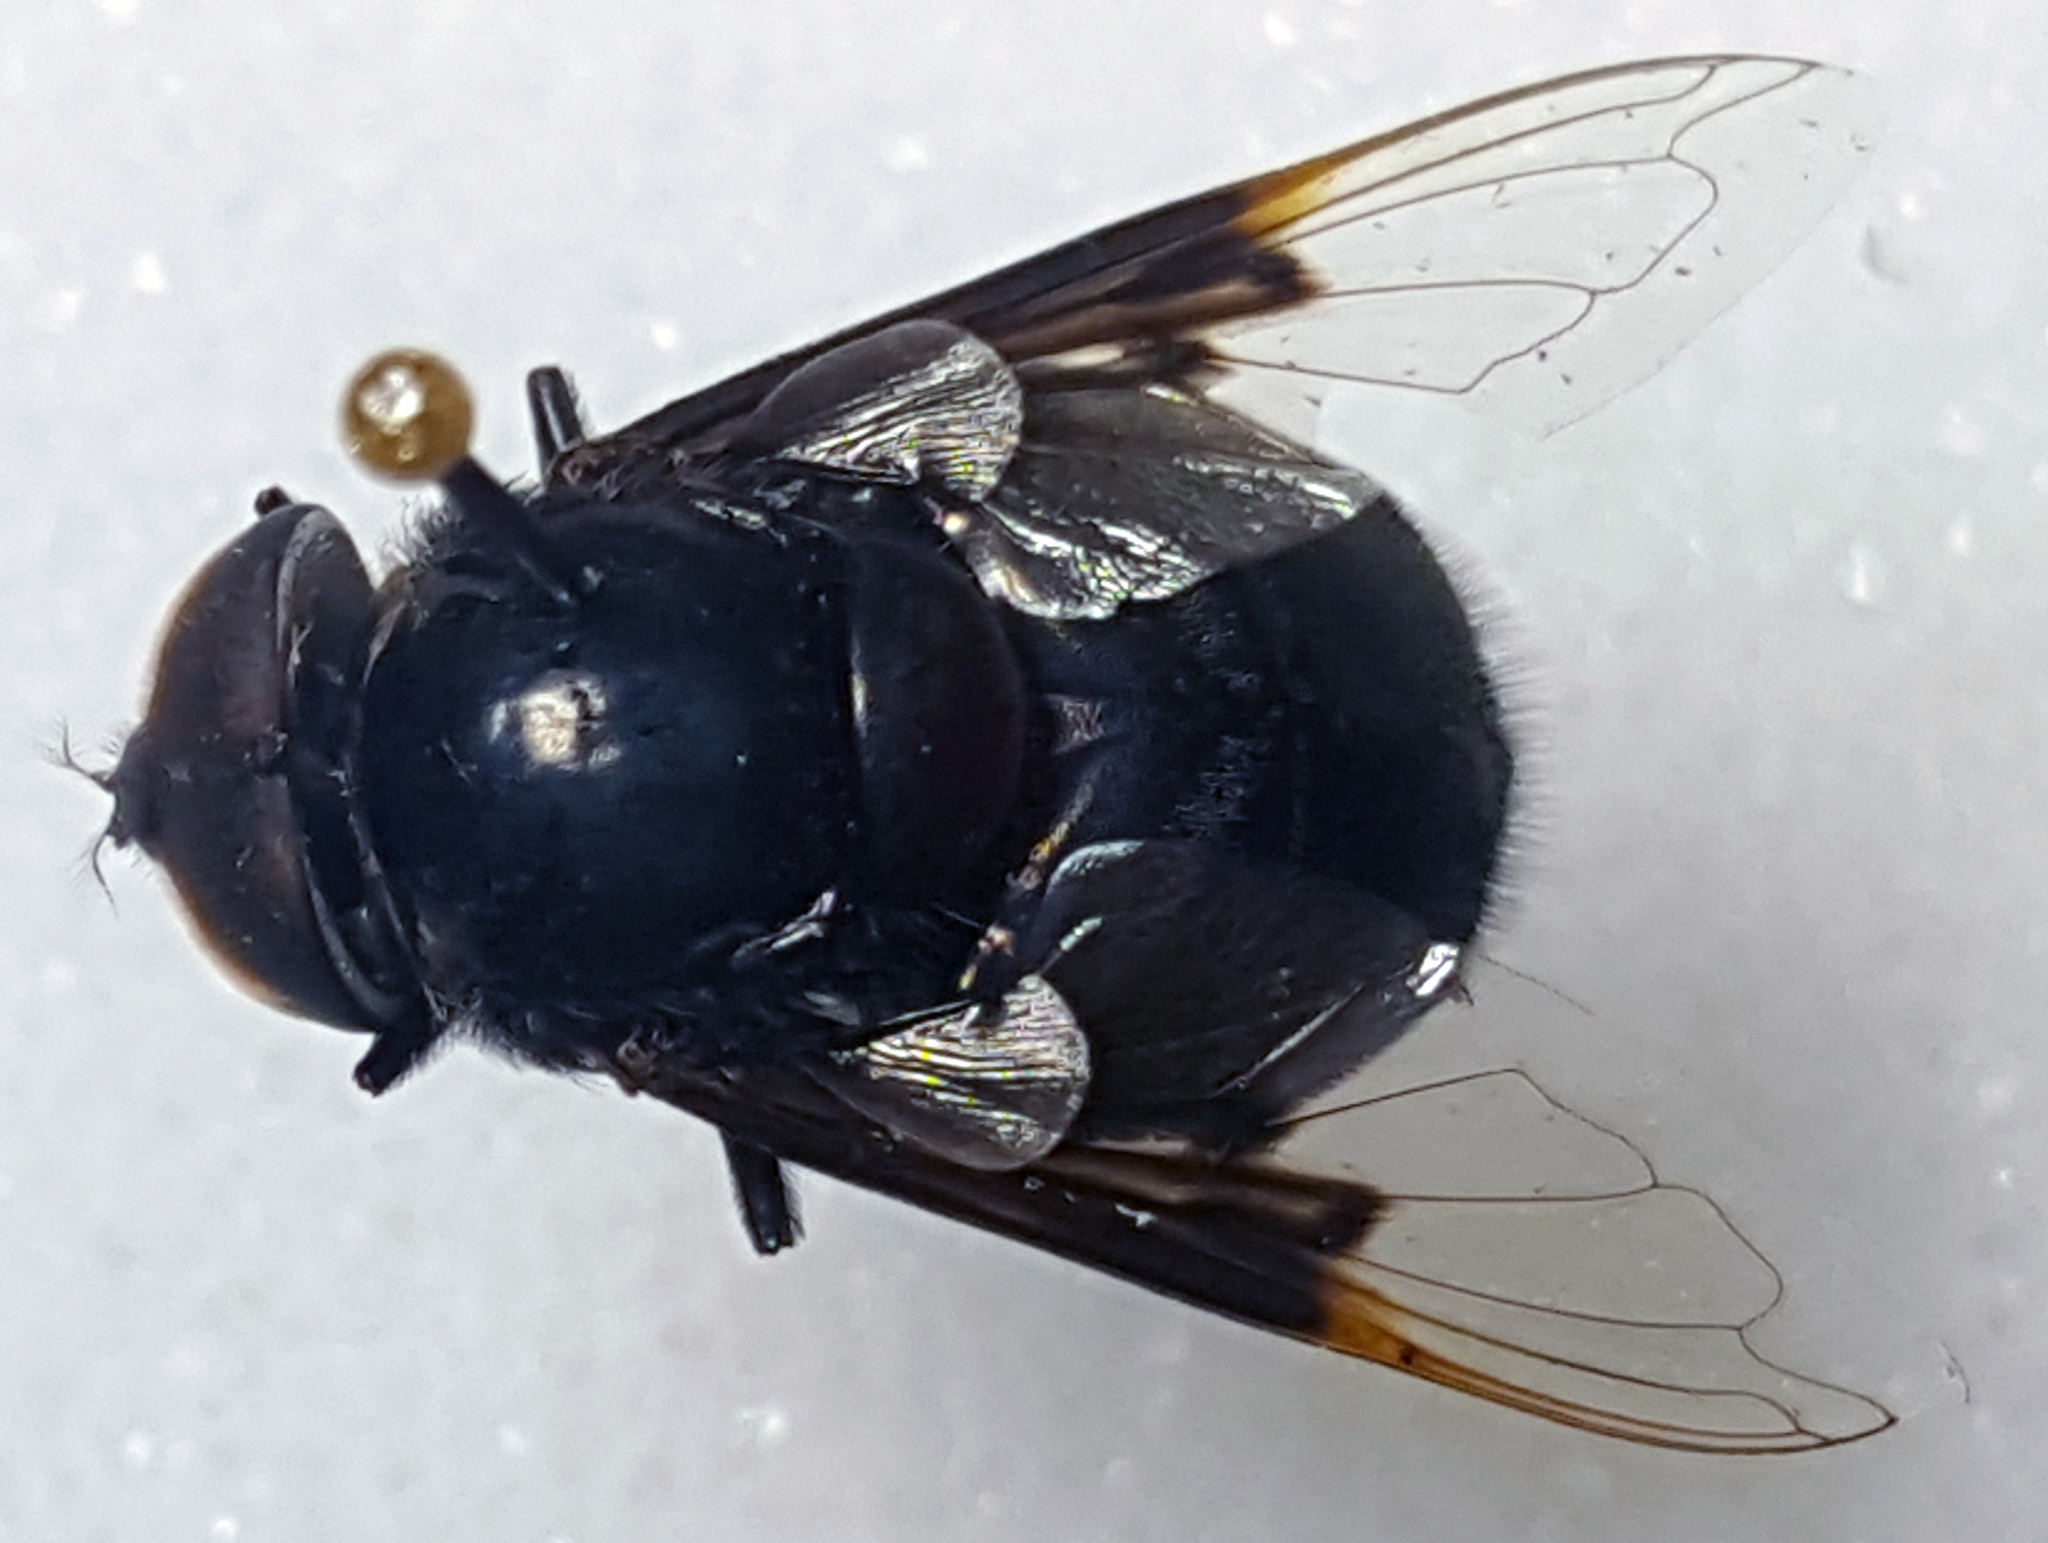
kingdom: Animalia
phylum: Arthropoda
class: Insecta
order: Diptera
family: Syrphidae
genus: Copestylum
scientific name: Copestylum mexicanum
